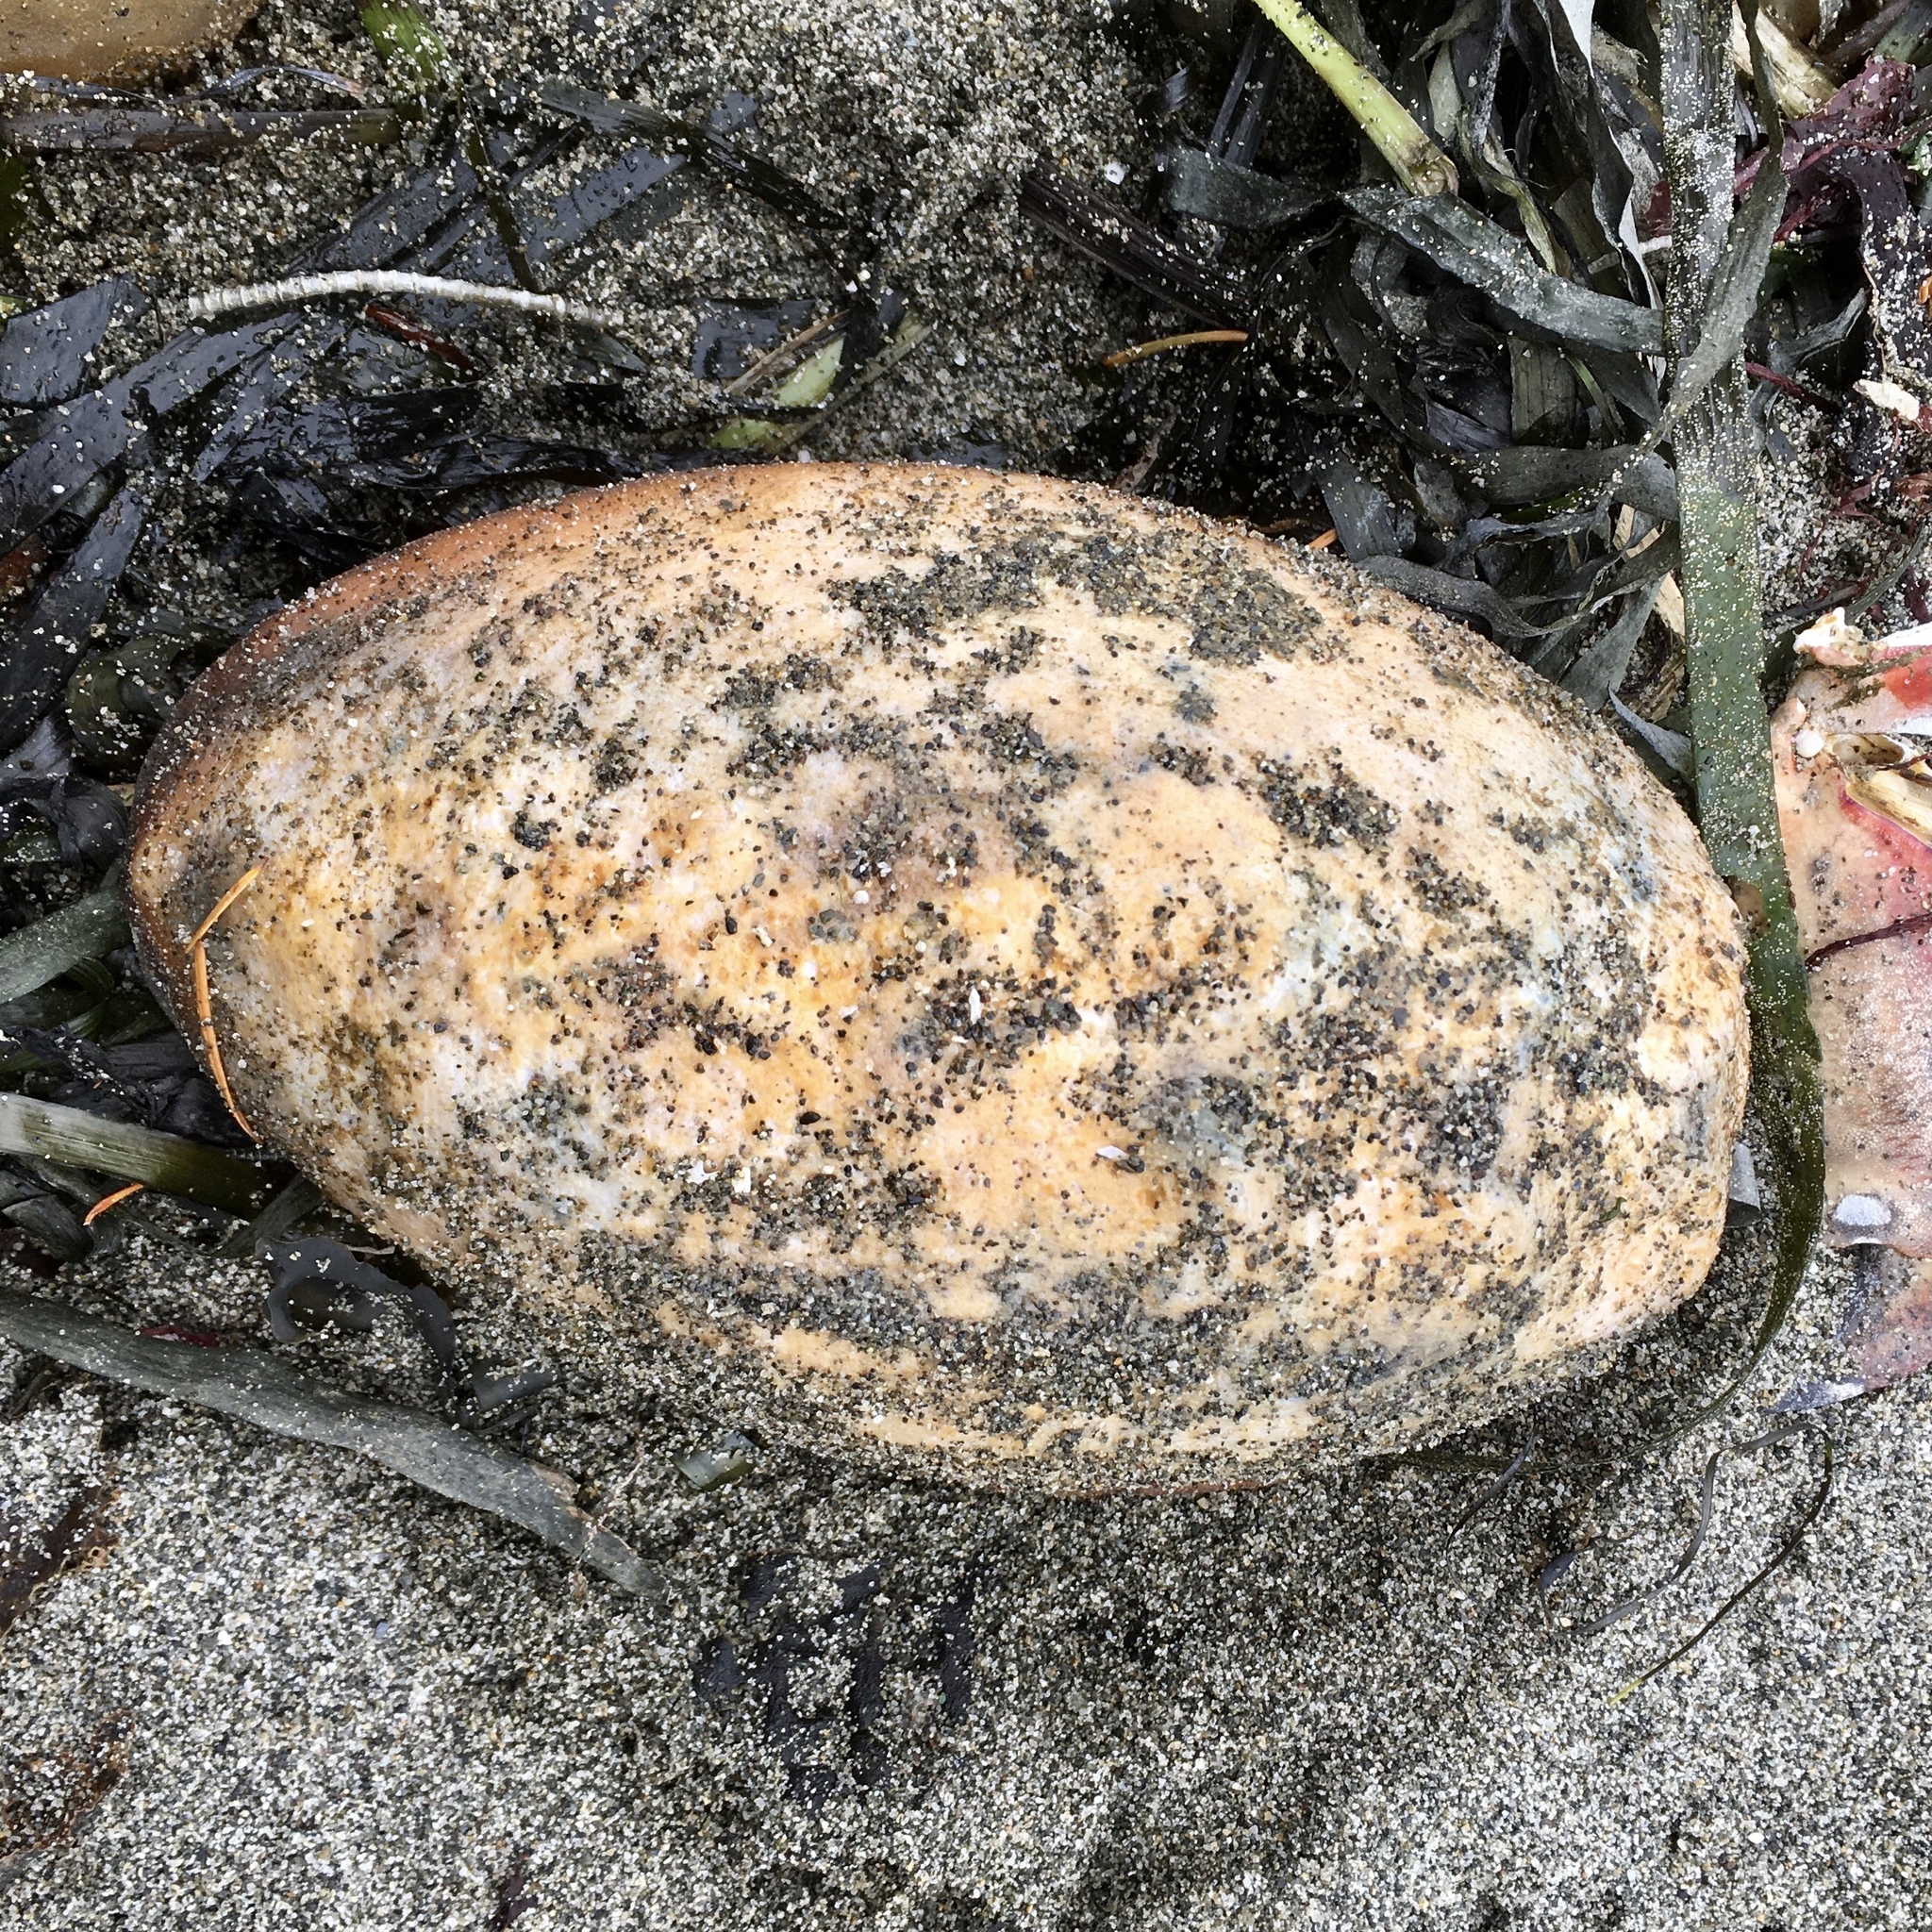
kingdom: Animalia
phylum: Mollusca
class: Polyplacophora
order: Chitonida
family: Acanthochitonidae
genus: Cryptochiton
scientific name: Cryptochiton stelleri
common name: Giant pacific chiton
